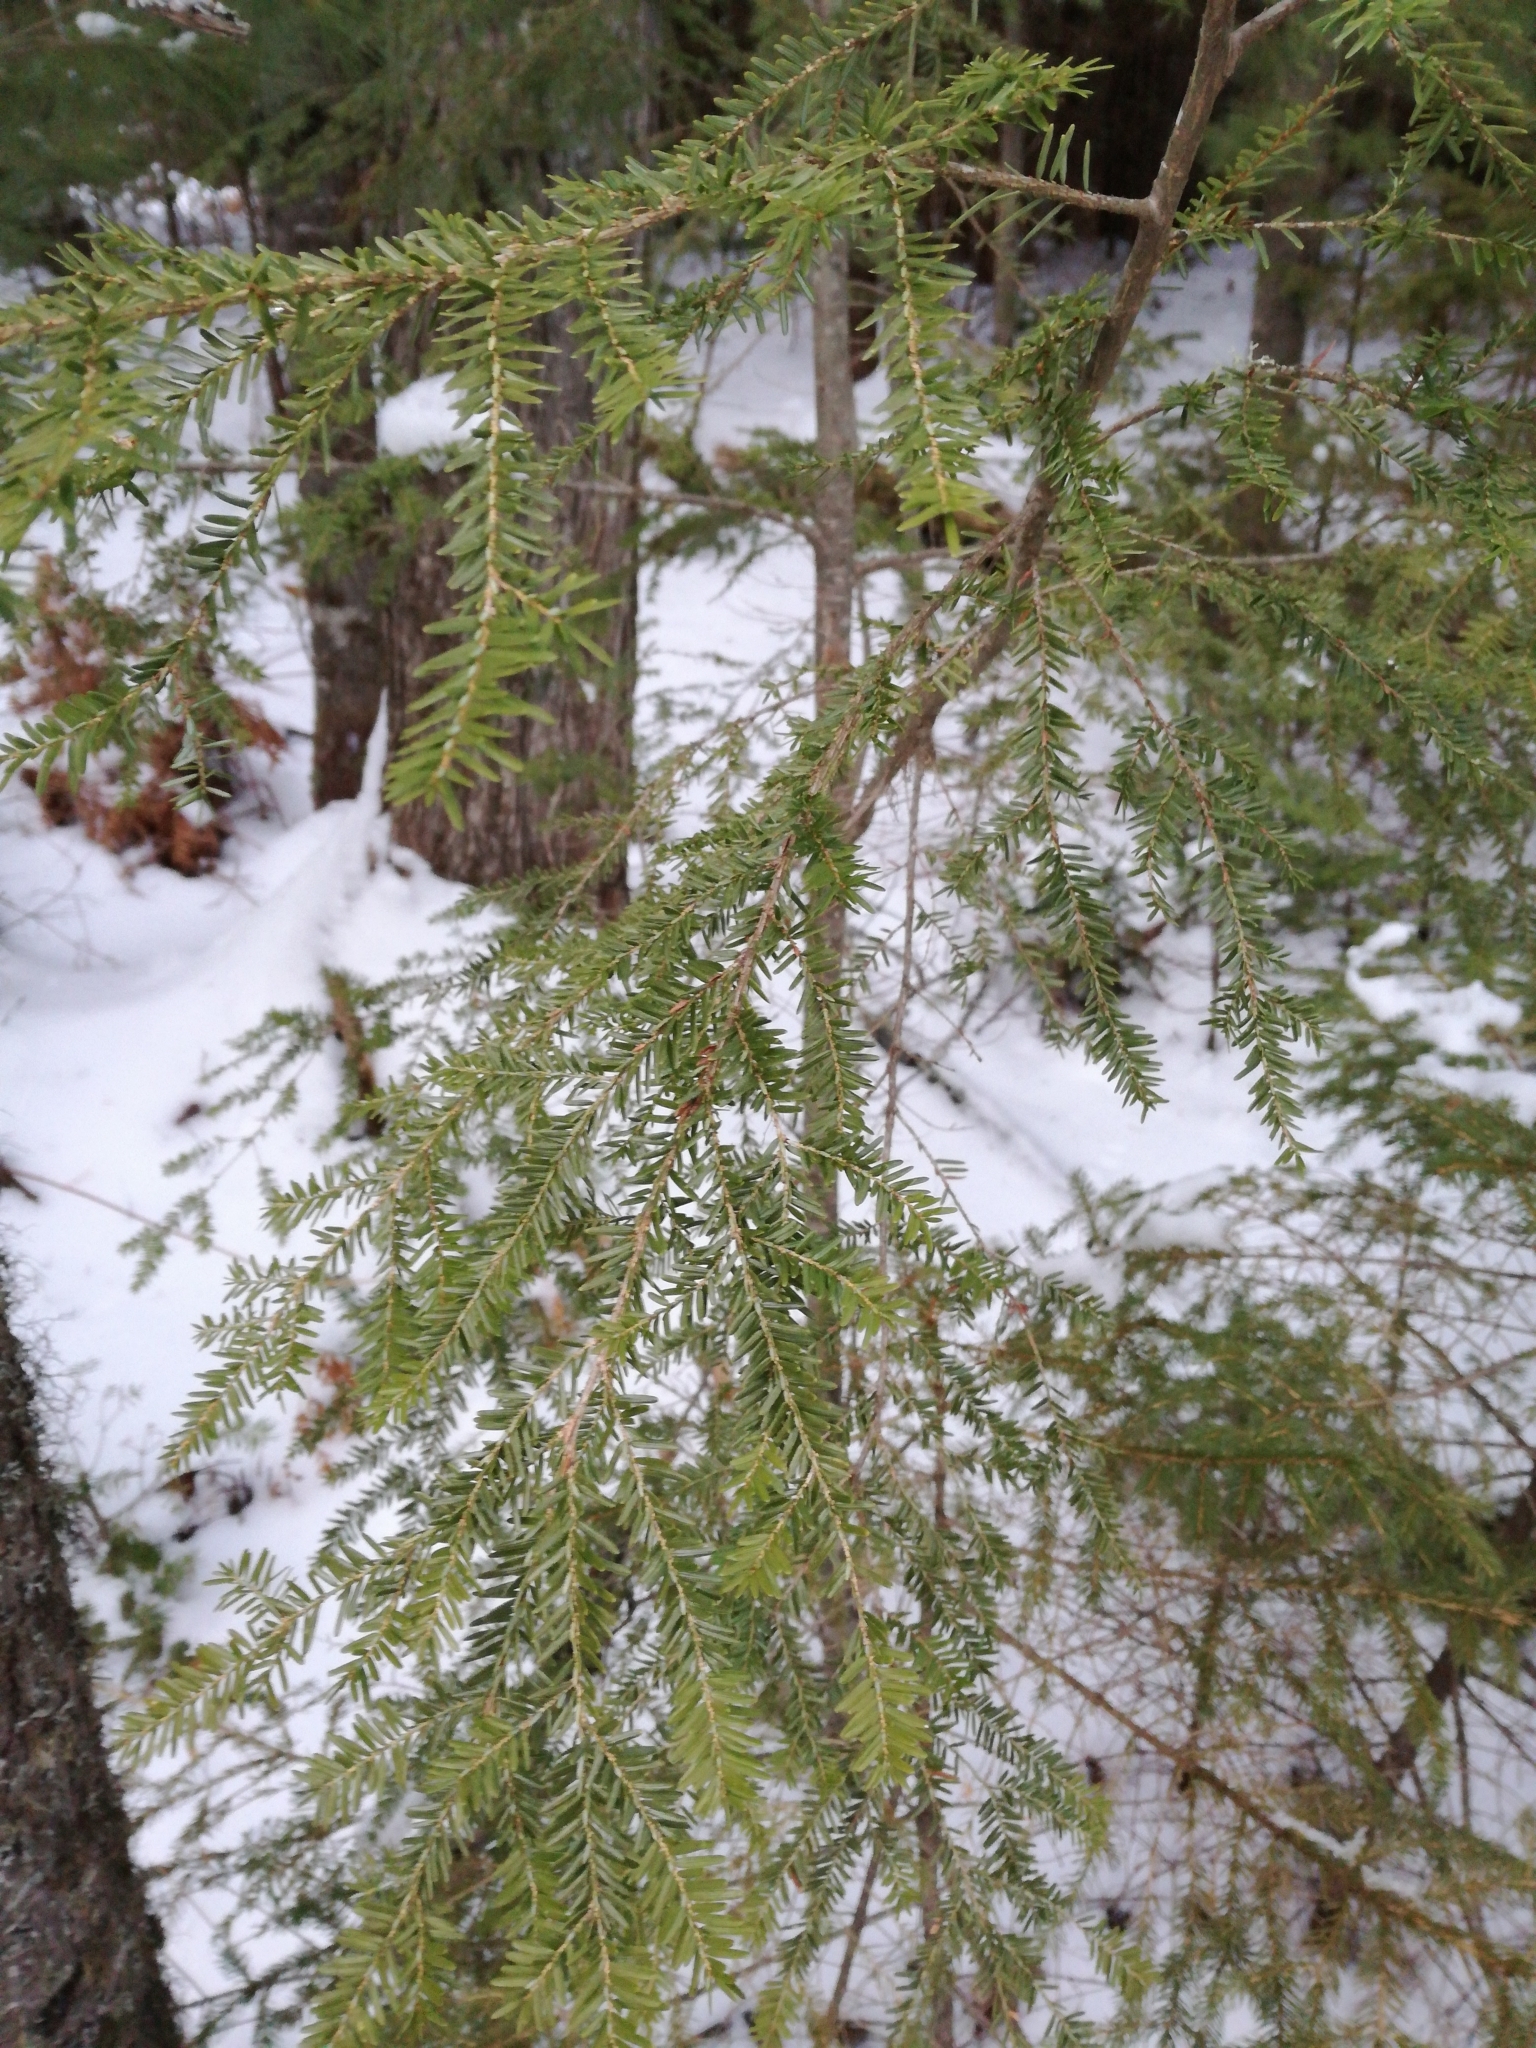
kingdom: Plantae
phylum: Tracheophyta
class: Pinopsida
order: Pinales
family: Pinaceae
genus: Tsuga
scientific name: Tsuga canadensis
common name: Eastern hemlock
